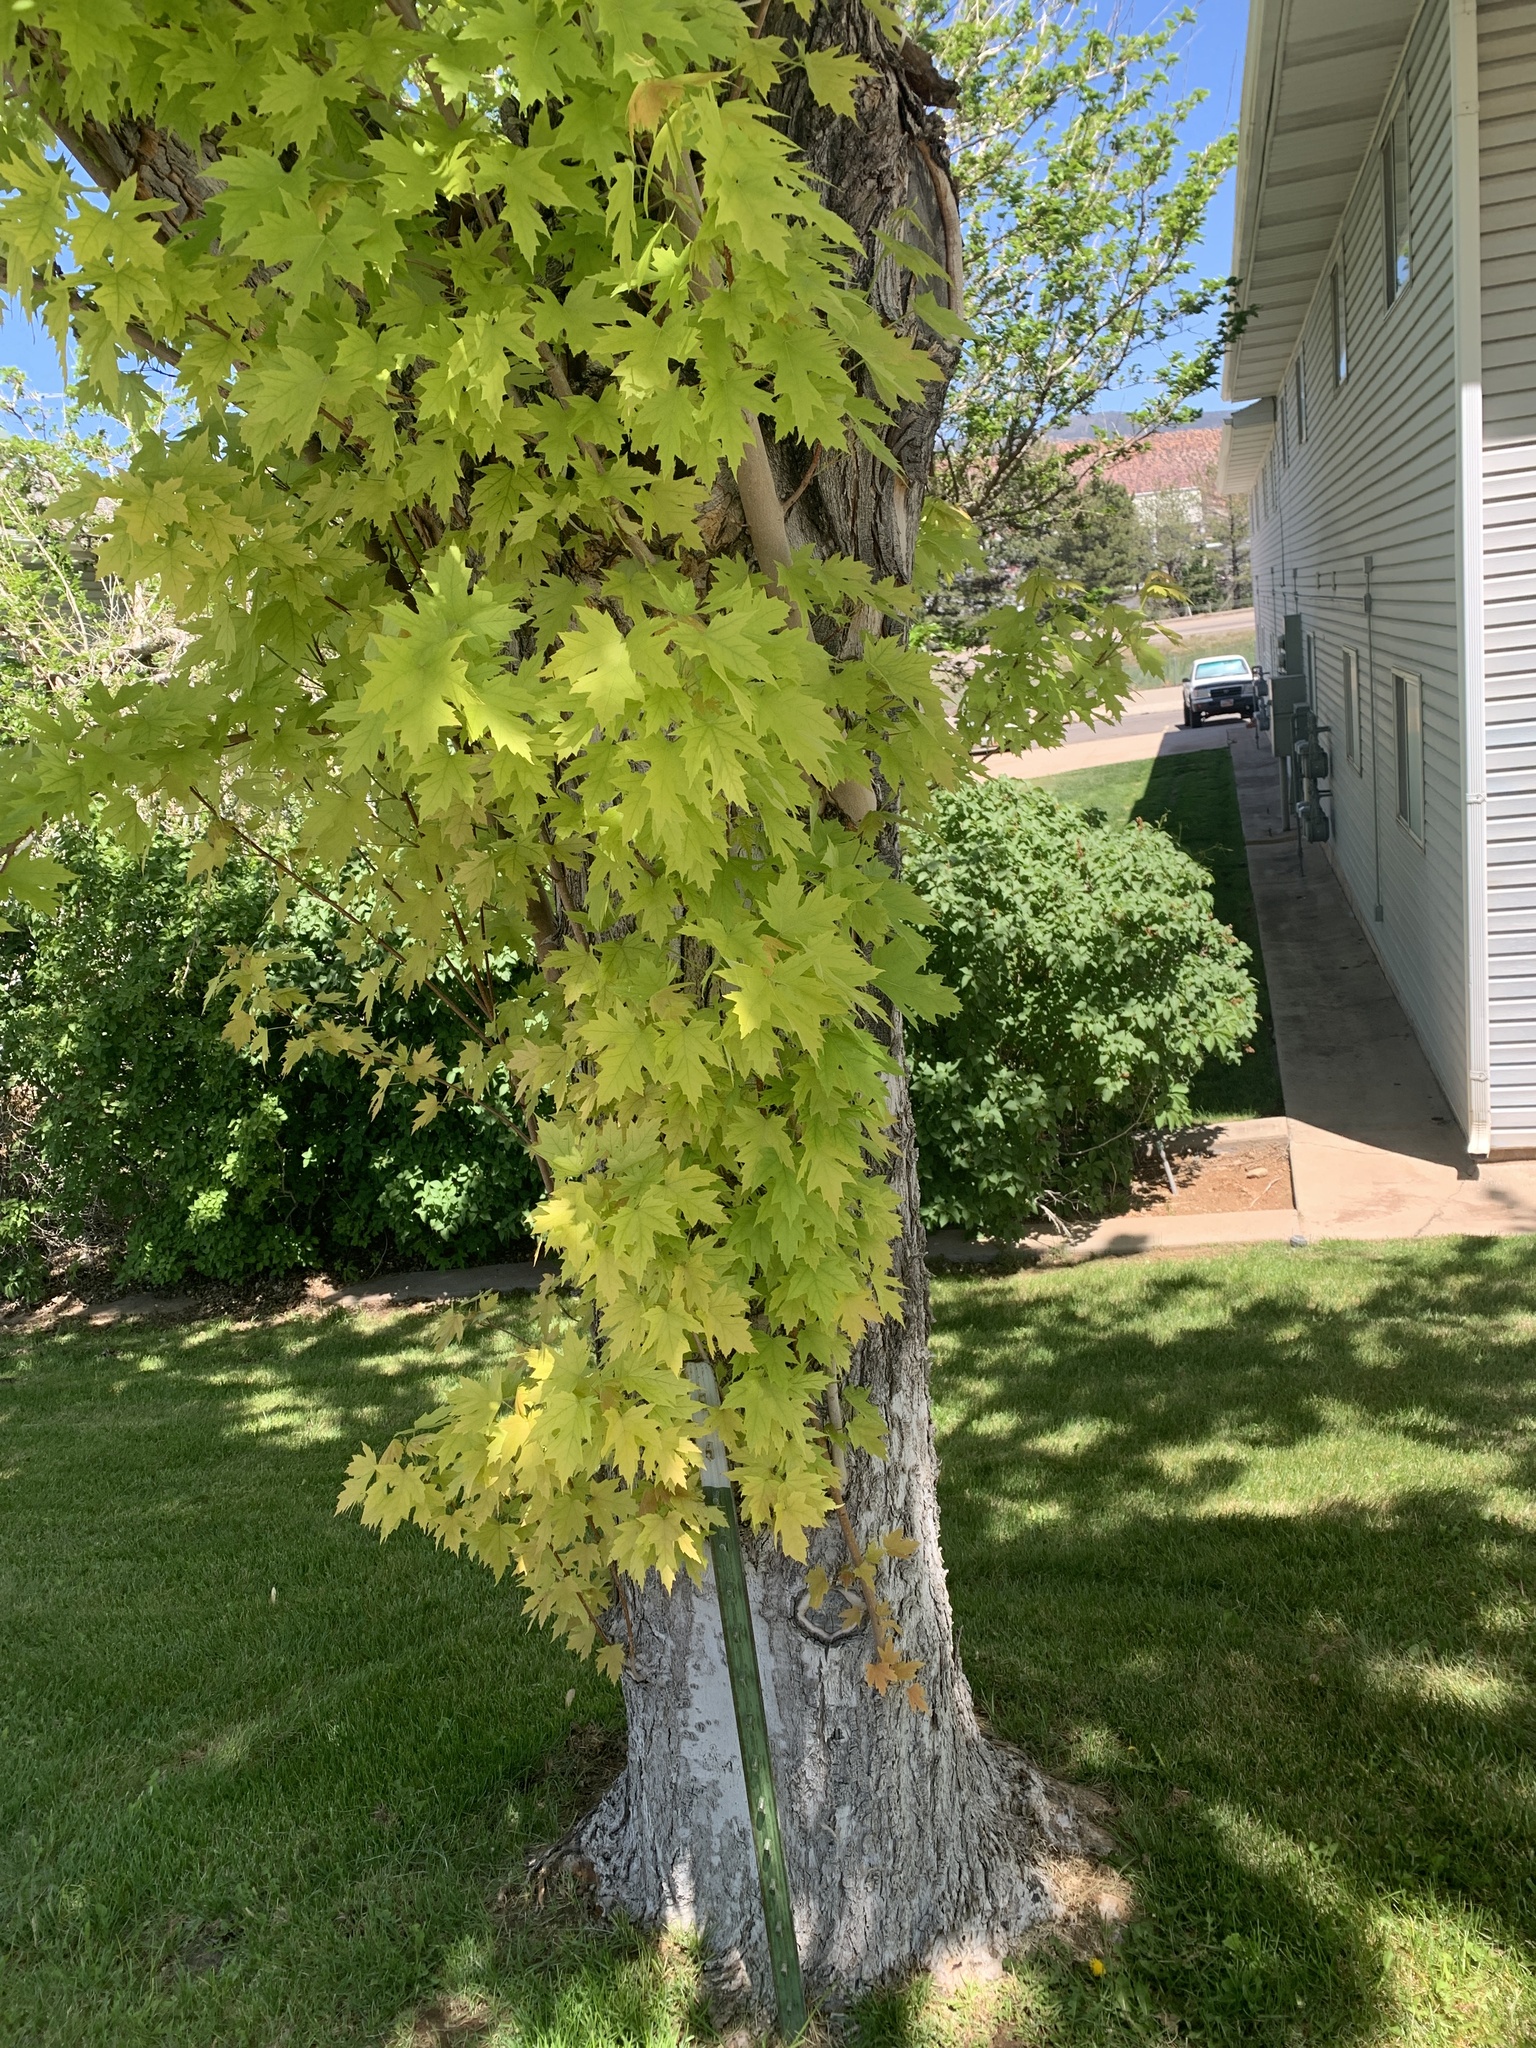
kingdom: Plantae
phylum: Tracheophyta
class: Magnoliopsida
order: Sapindales
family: Sapindaceae
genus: Acer
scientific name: Acer grandidentatum
